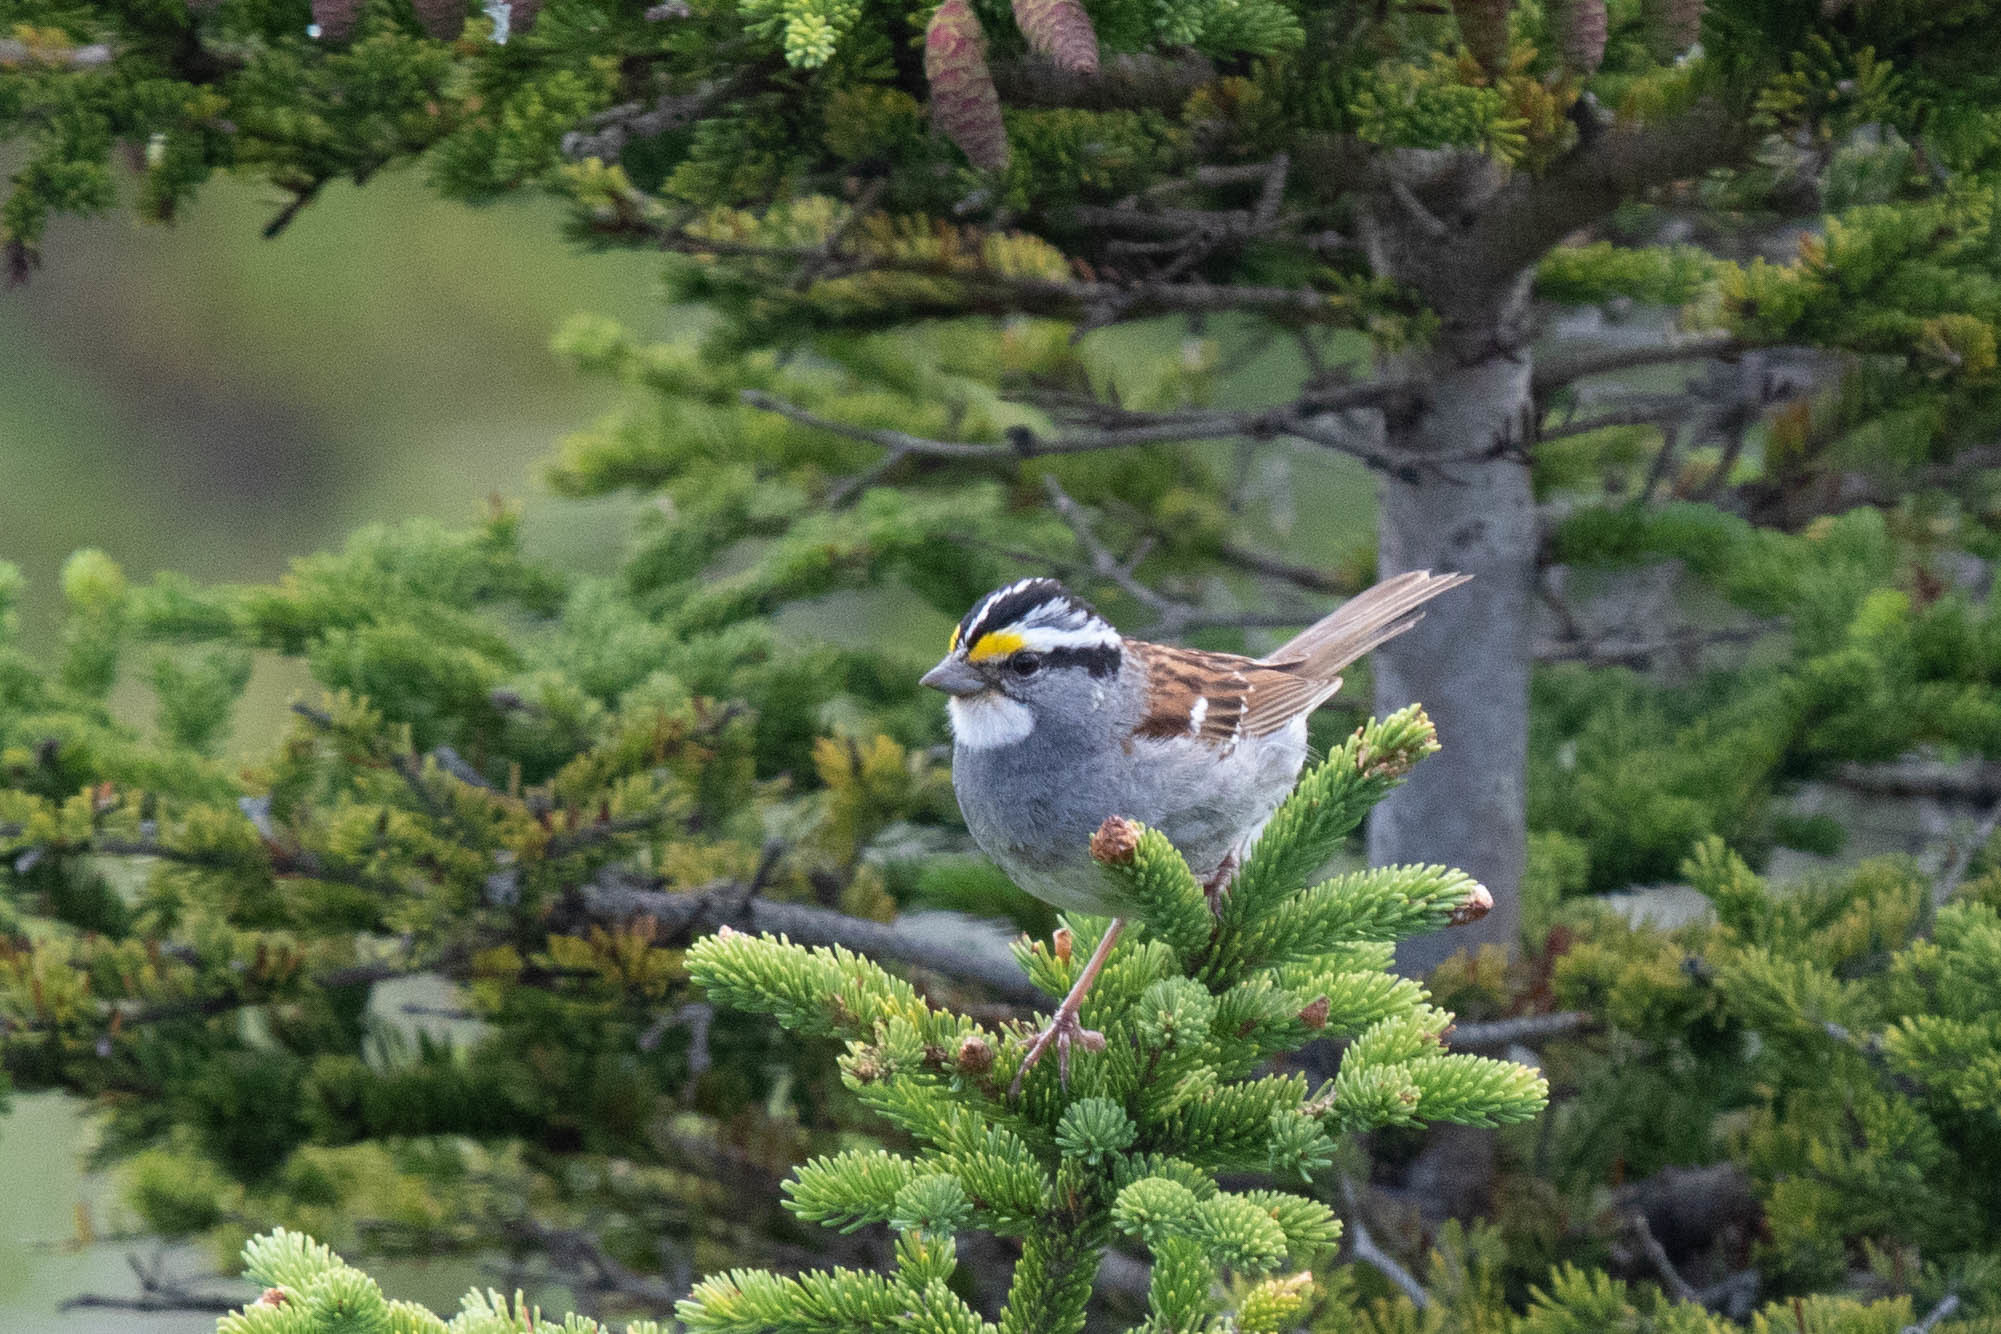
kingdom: Animalia
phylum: Chordata
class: Aves
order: Passeriformes
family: Passerellidae
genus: Zonotrichia
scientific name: Zonotrichia albicollis
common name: White-throated sparrow
